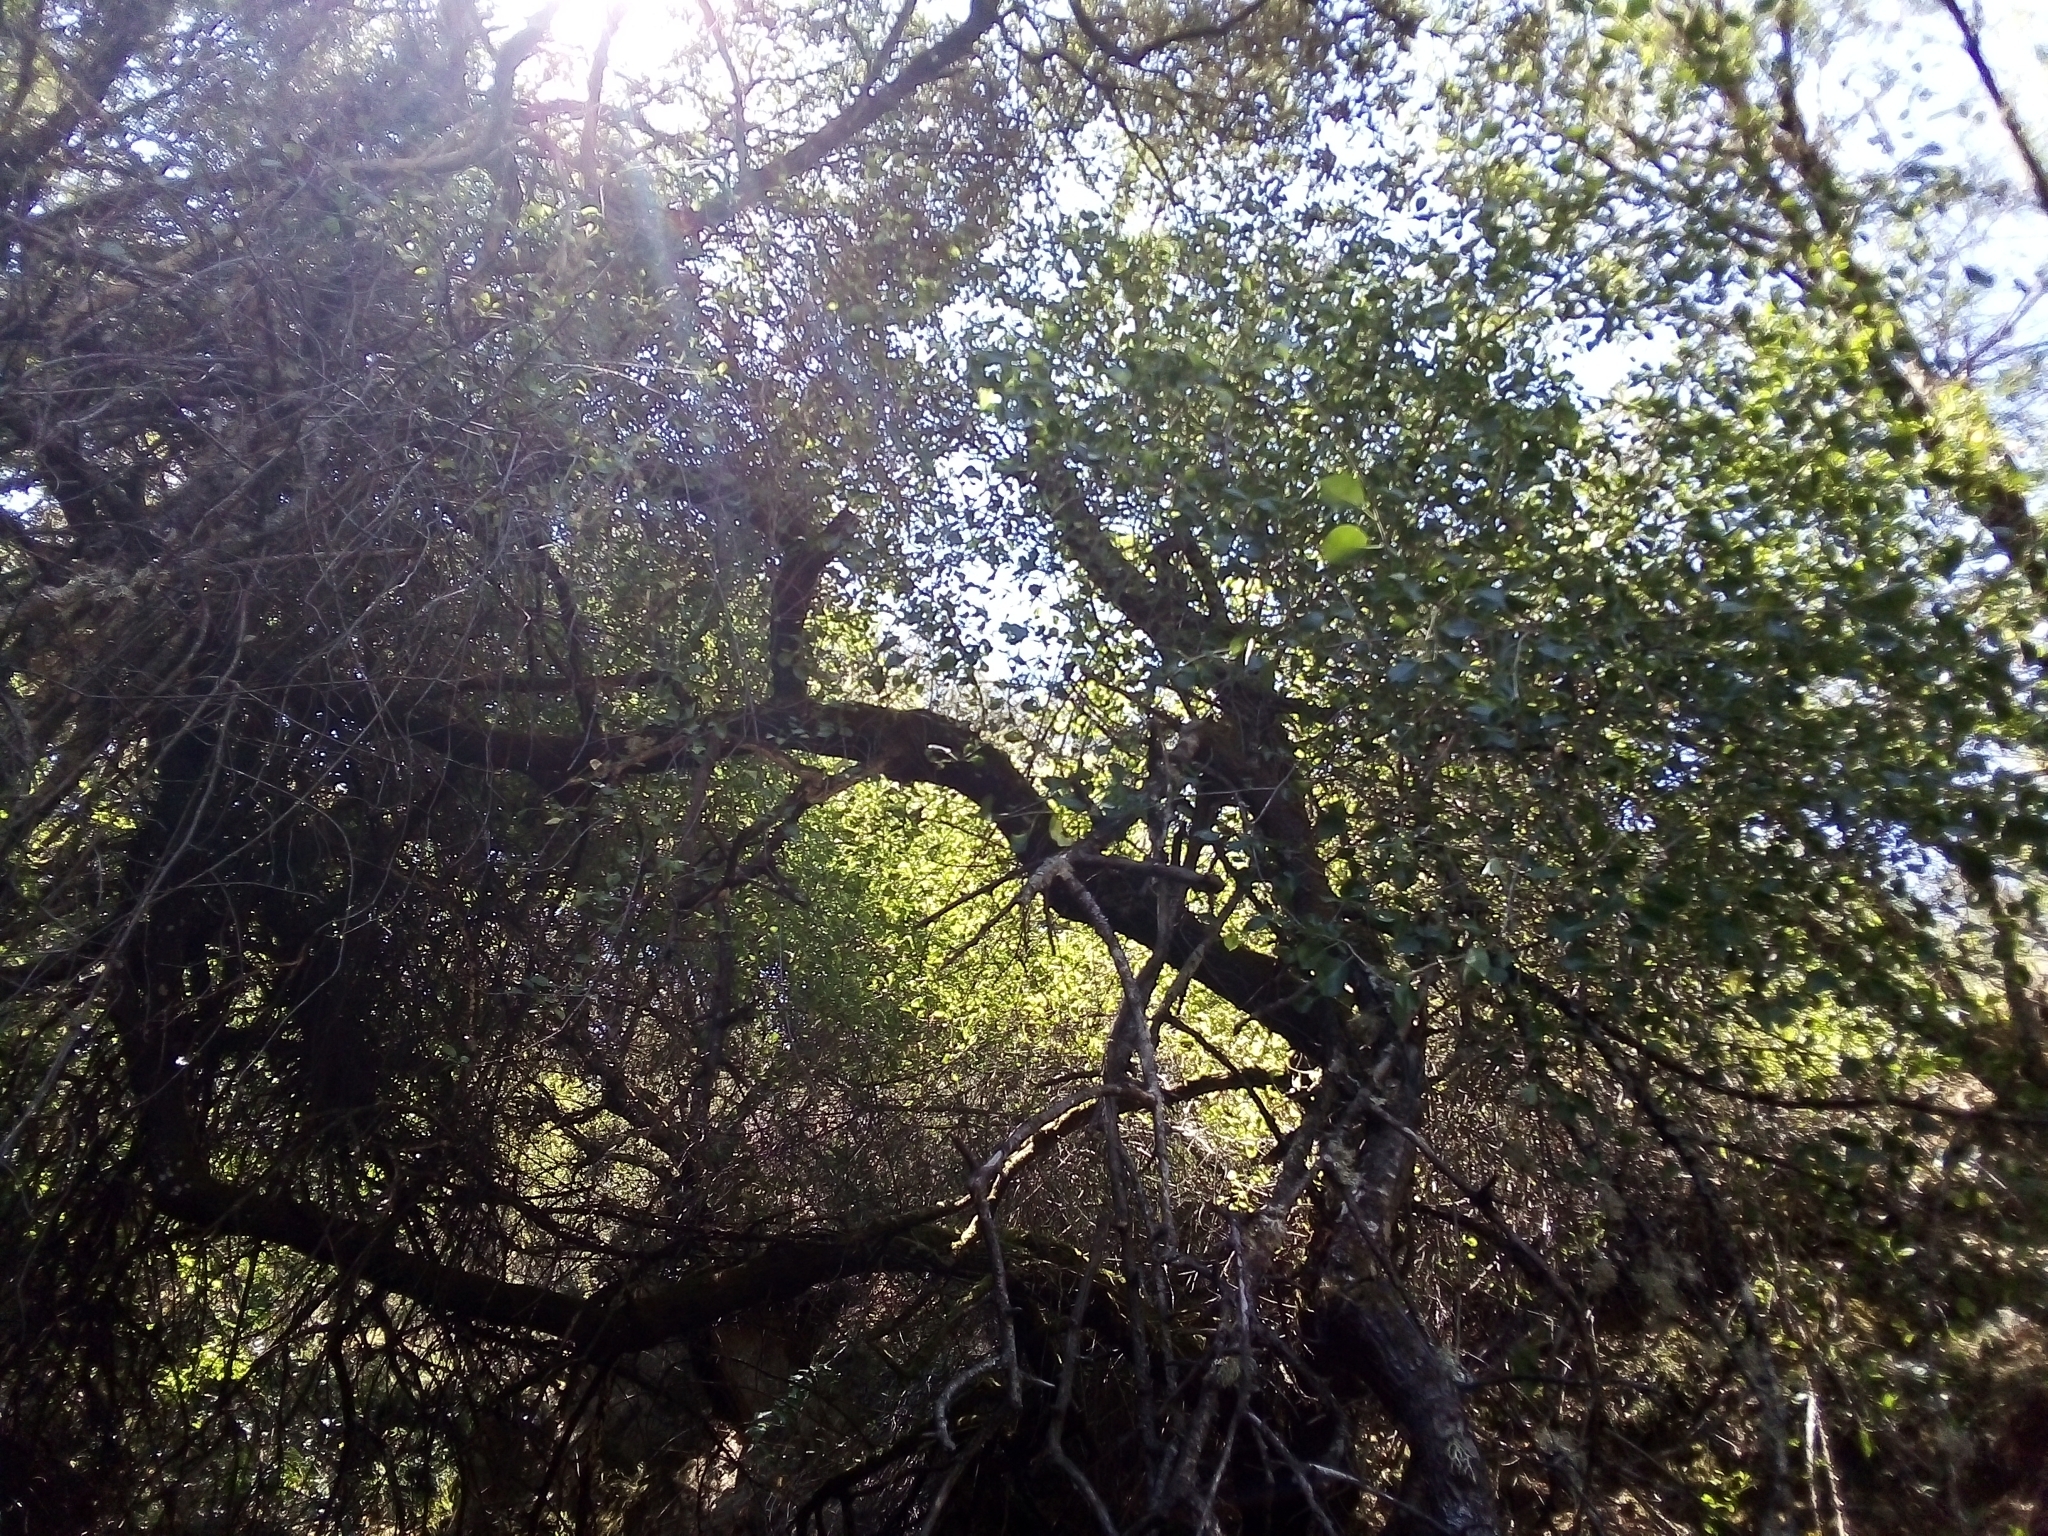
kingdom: Plantae
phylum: Tracheophyta
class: Magnoliopsida
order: Rosales
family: Rosaceae
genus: Prunus
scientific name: Prunus mahaleb
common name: Mahaleb cherry
